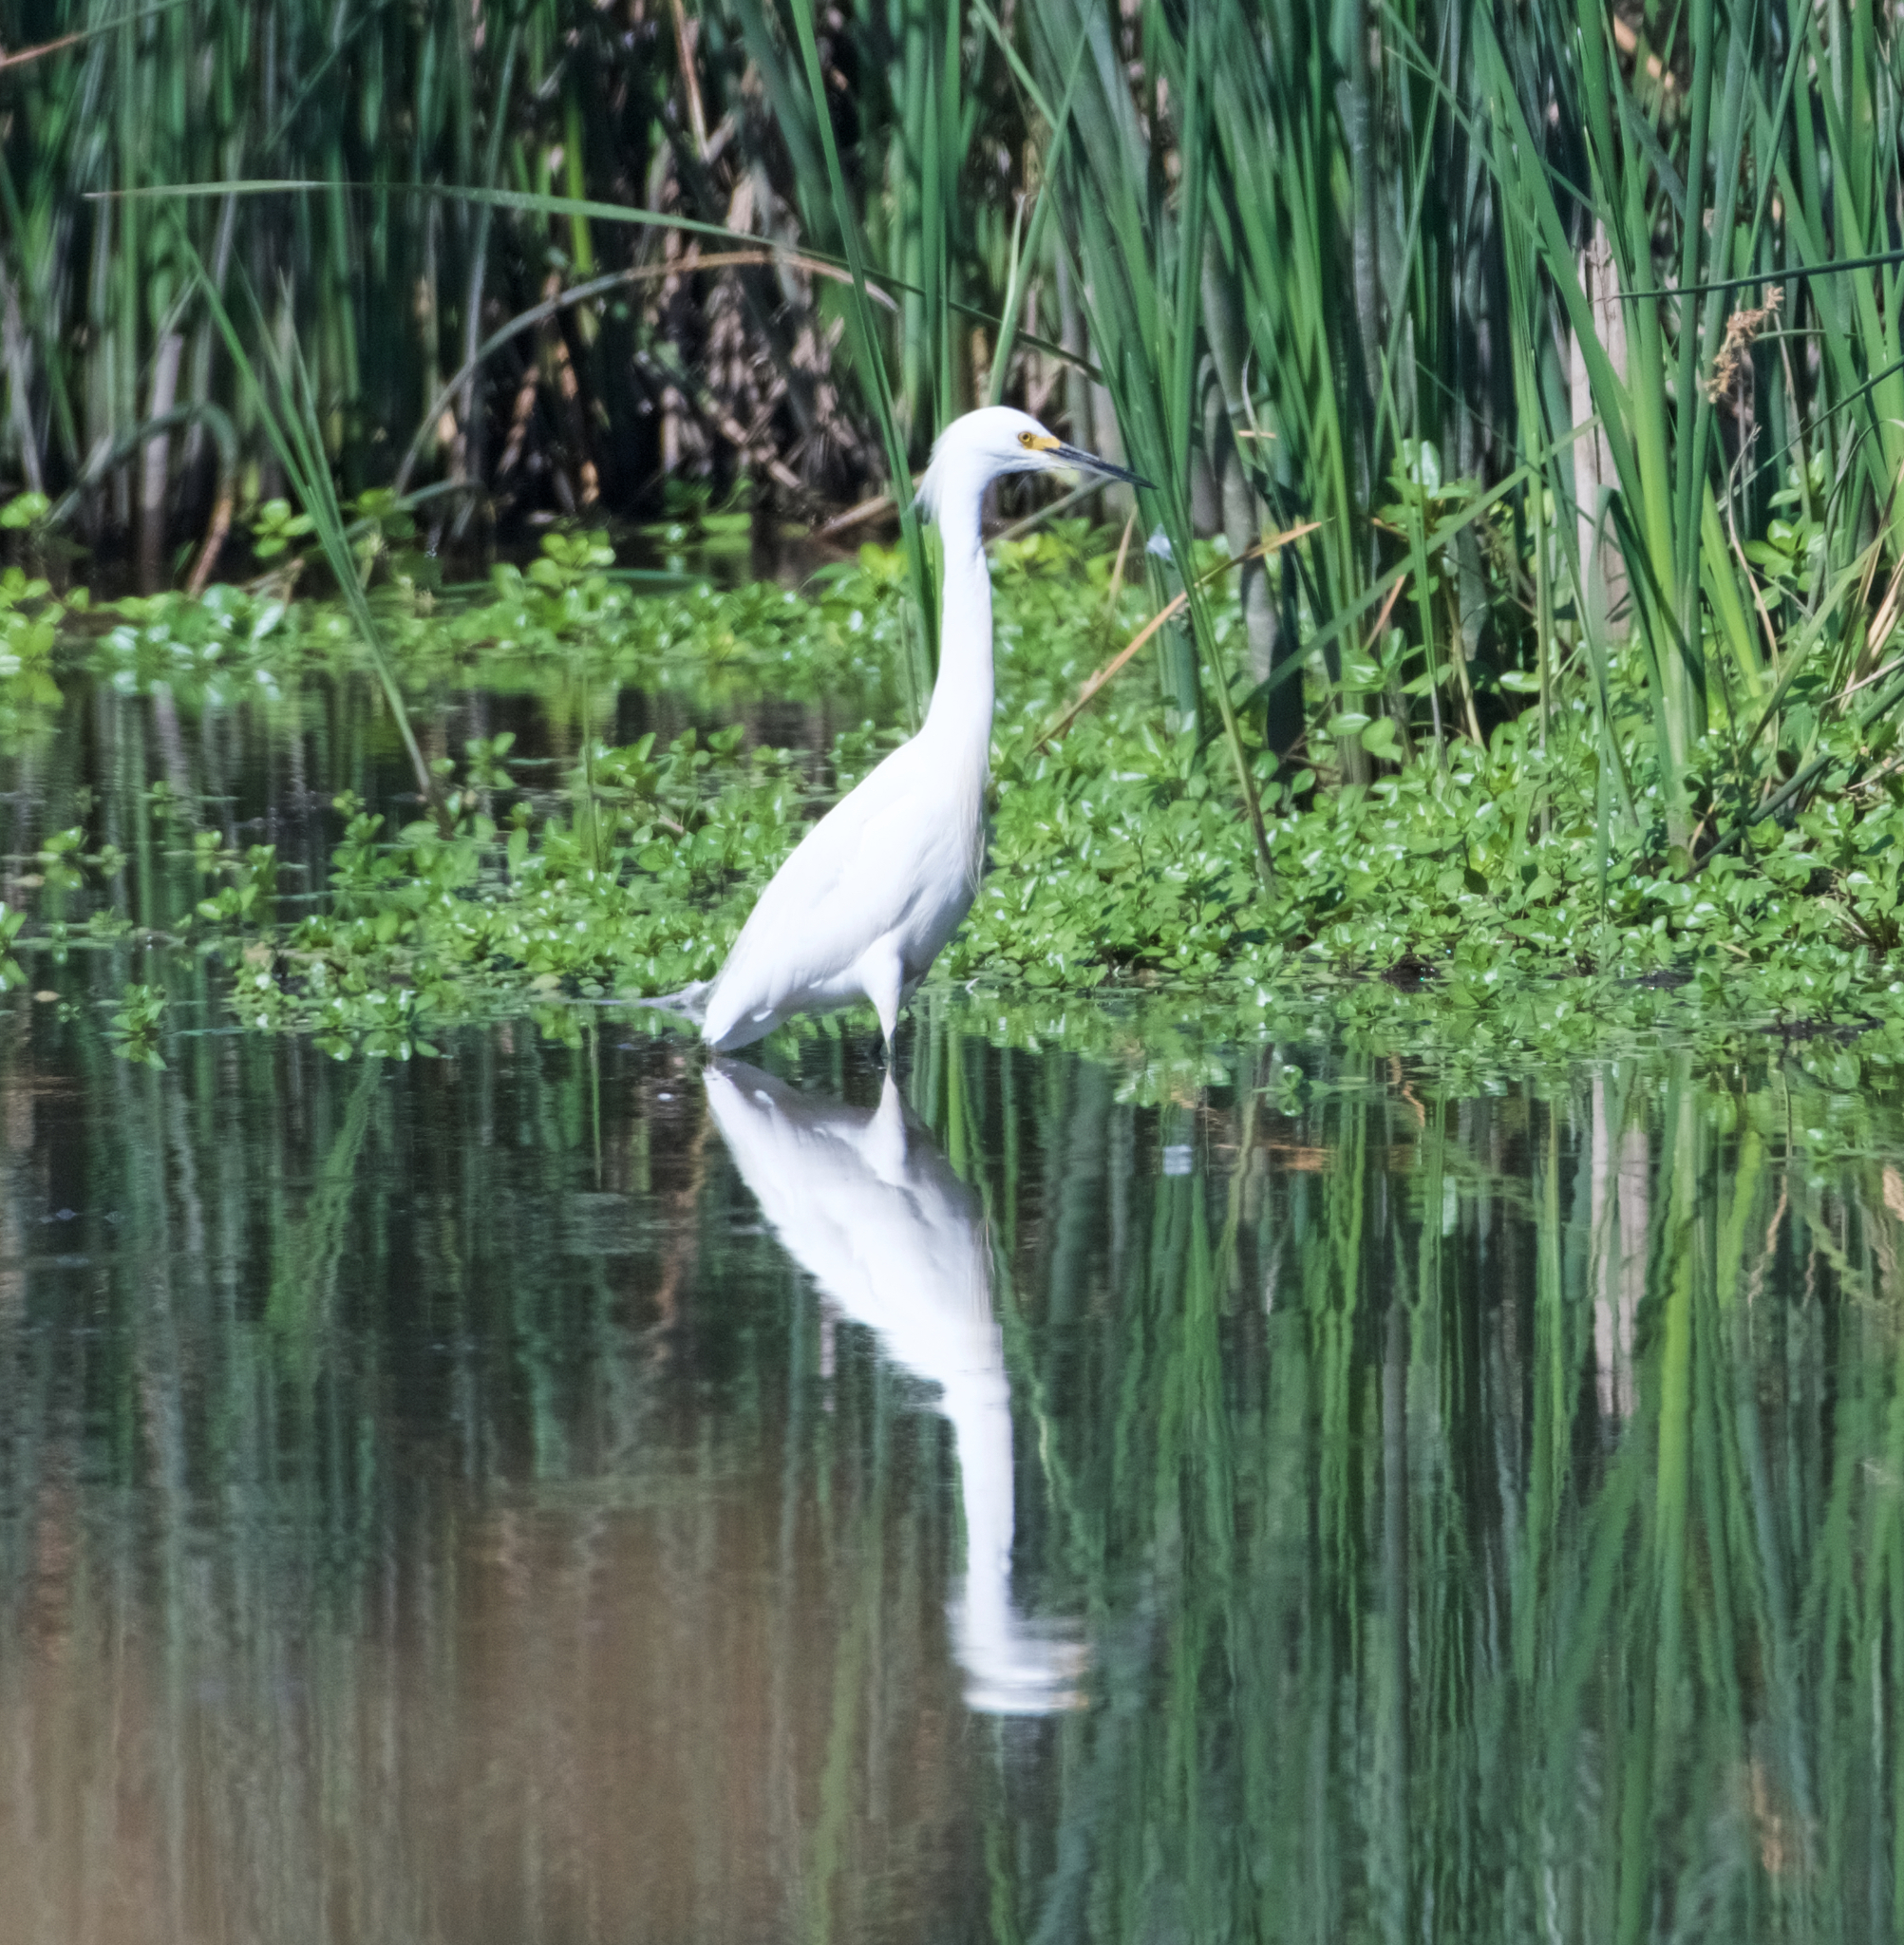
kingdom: Animalia
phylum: Chordata
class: Aves
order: Pelecaniformes
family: Ardeidae
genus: Egretta
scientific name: Egretta thula
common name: Snowy egret
